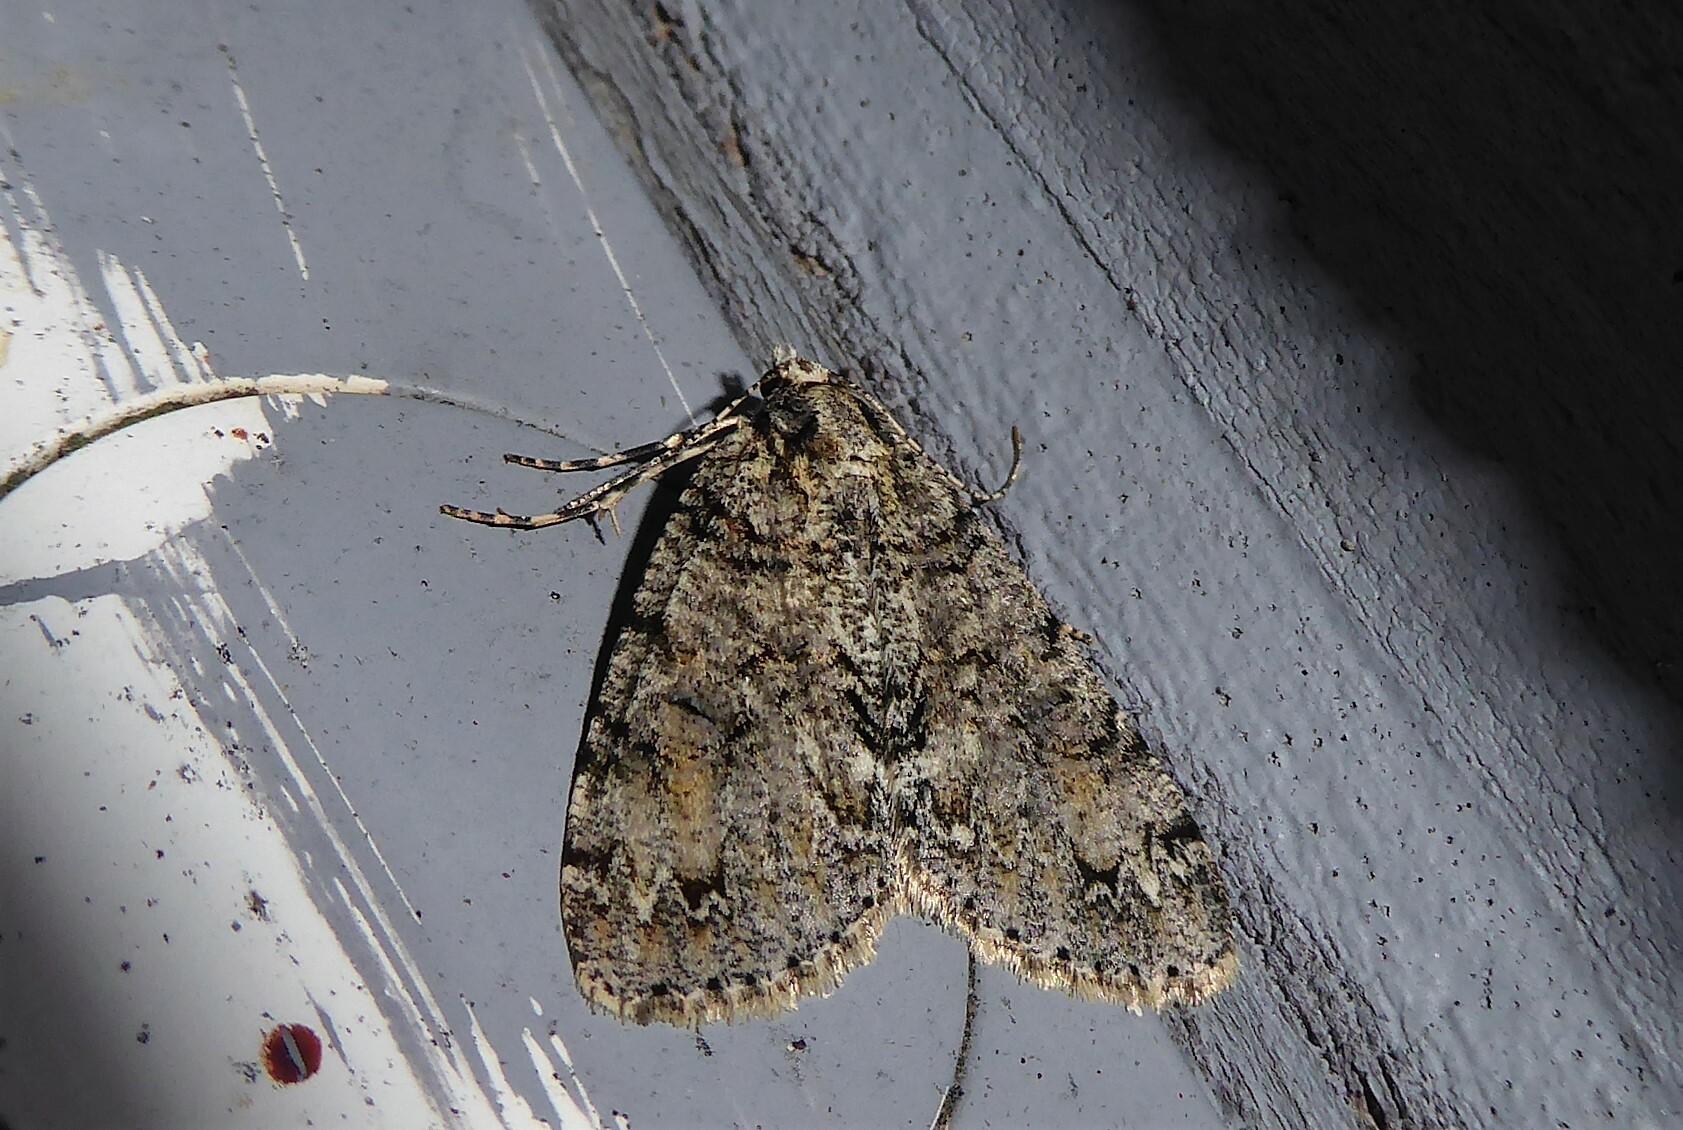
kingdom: Animalia
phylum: Arthropoda
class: Insecta
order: Lepidoptera
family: Geometridae
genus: Pseudocoremia
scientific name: Pseudocoremia suavis
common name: Common forest looper
